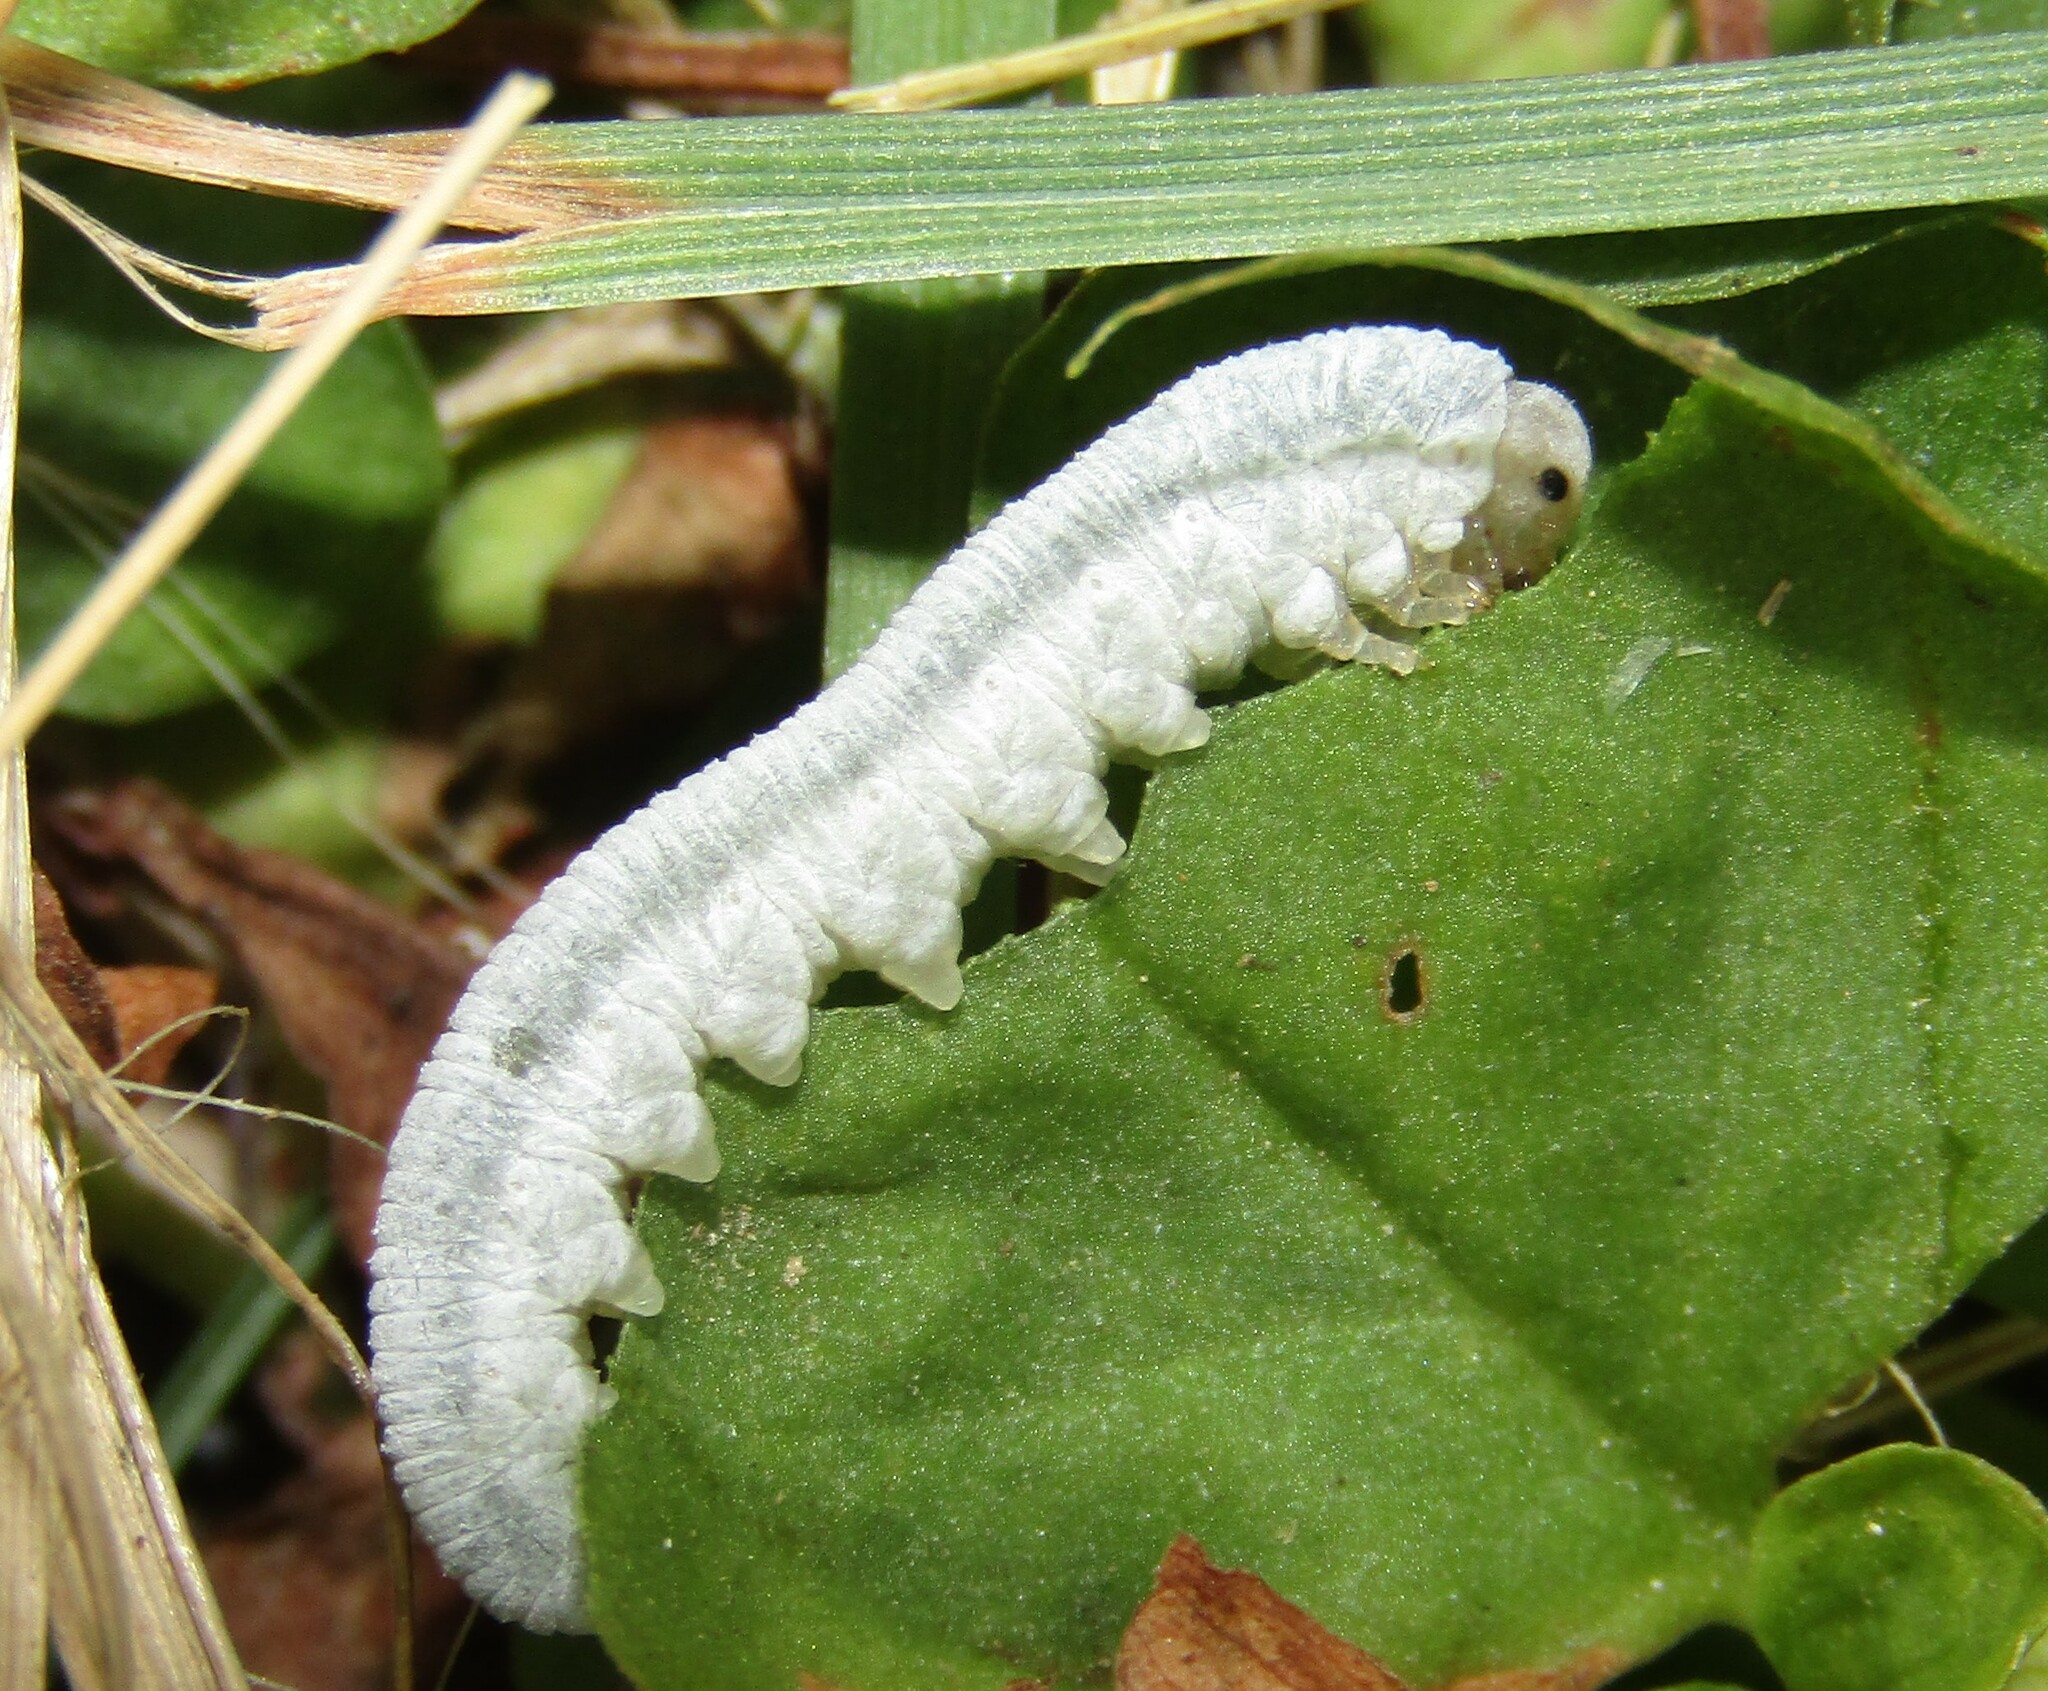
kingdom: Animalia
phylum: Arthropoda
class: Insecta
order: Hymenoptera
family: Tenthredinidae
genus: Monostegia
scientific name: Monostegia abdominalis
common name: Tenthredid wasp
